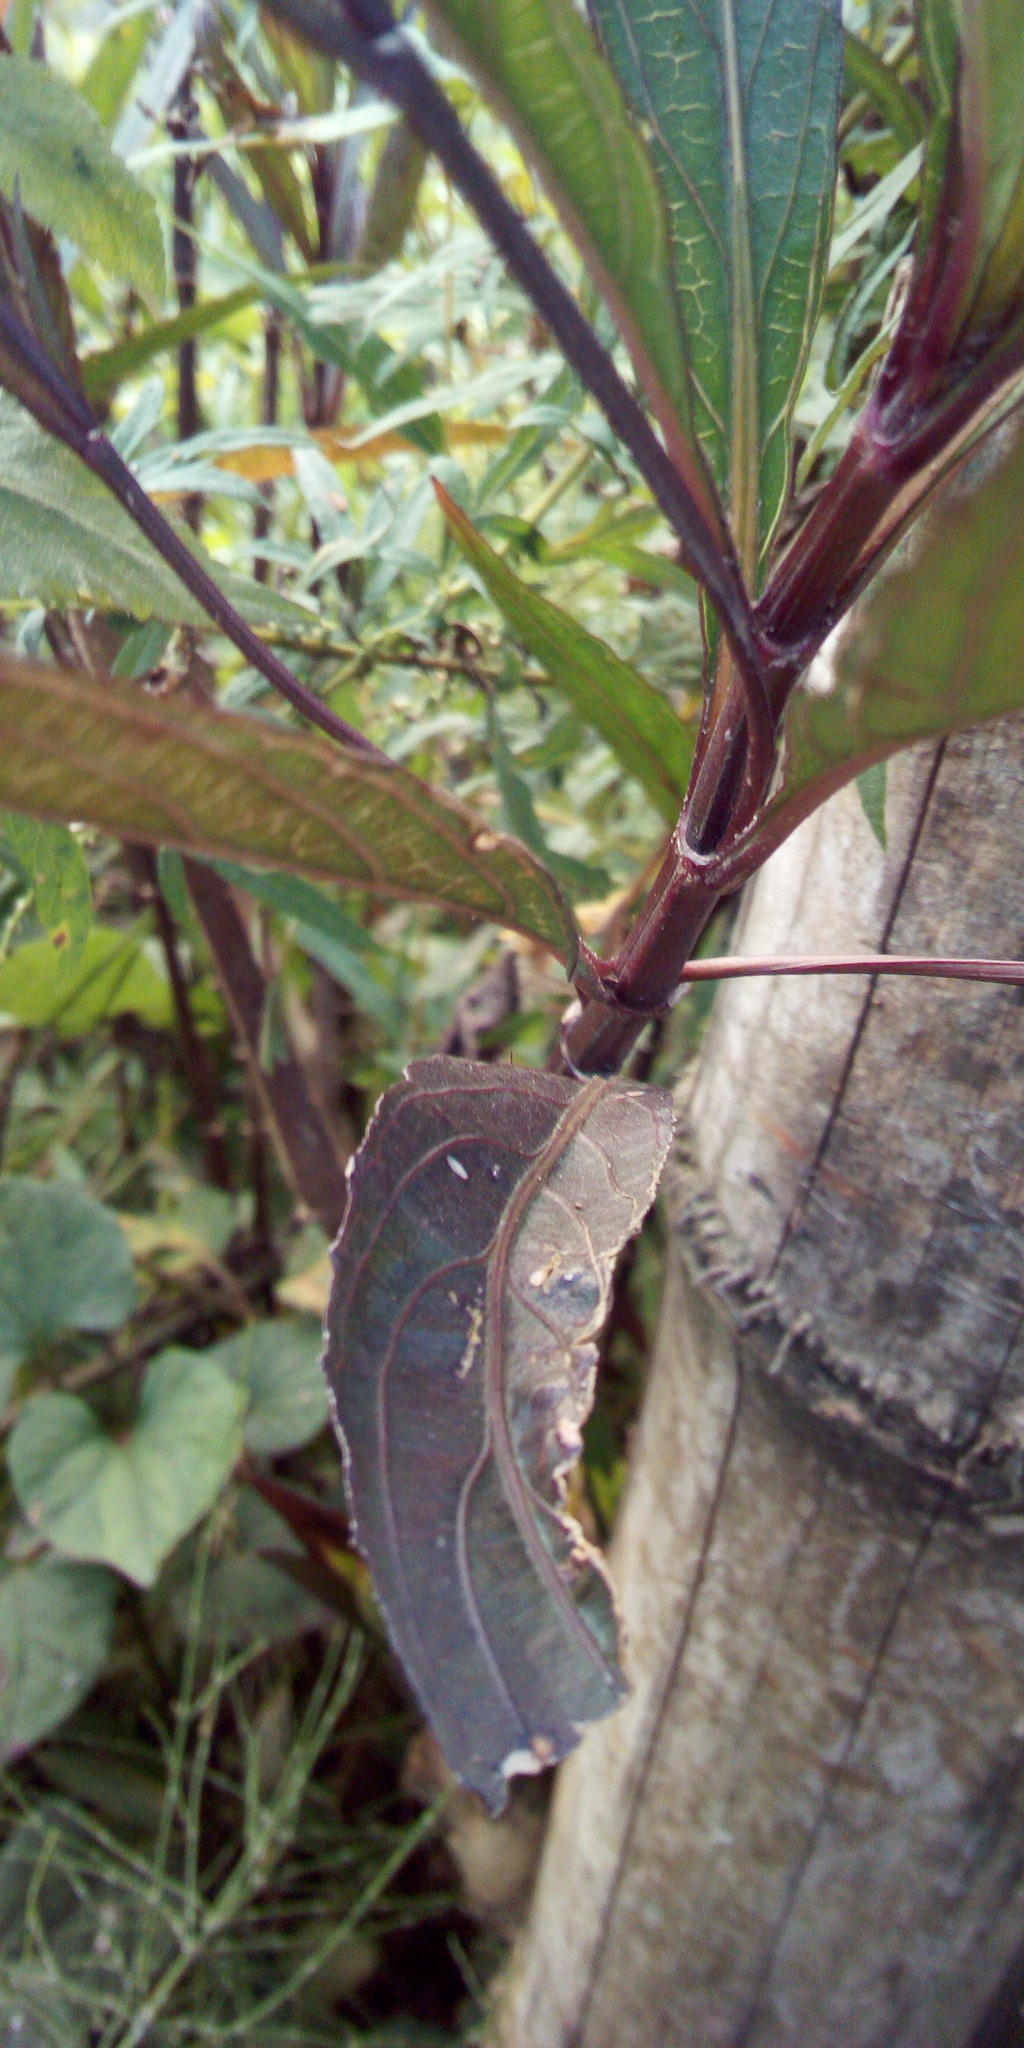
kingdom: Plantae
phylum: Tracheophyta
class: Magnoliopsida
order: Lamiales
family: Acanthaceae
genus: Ruellia
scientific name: Ruellia simplex
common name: Softseed wild petunia
